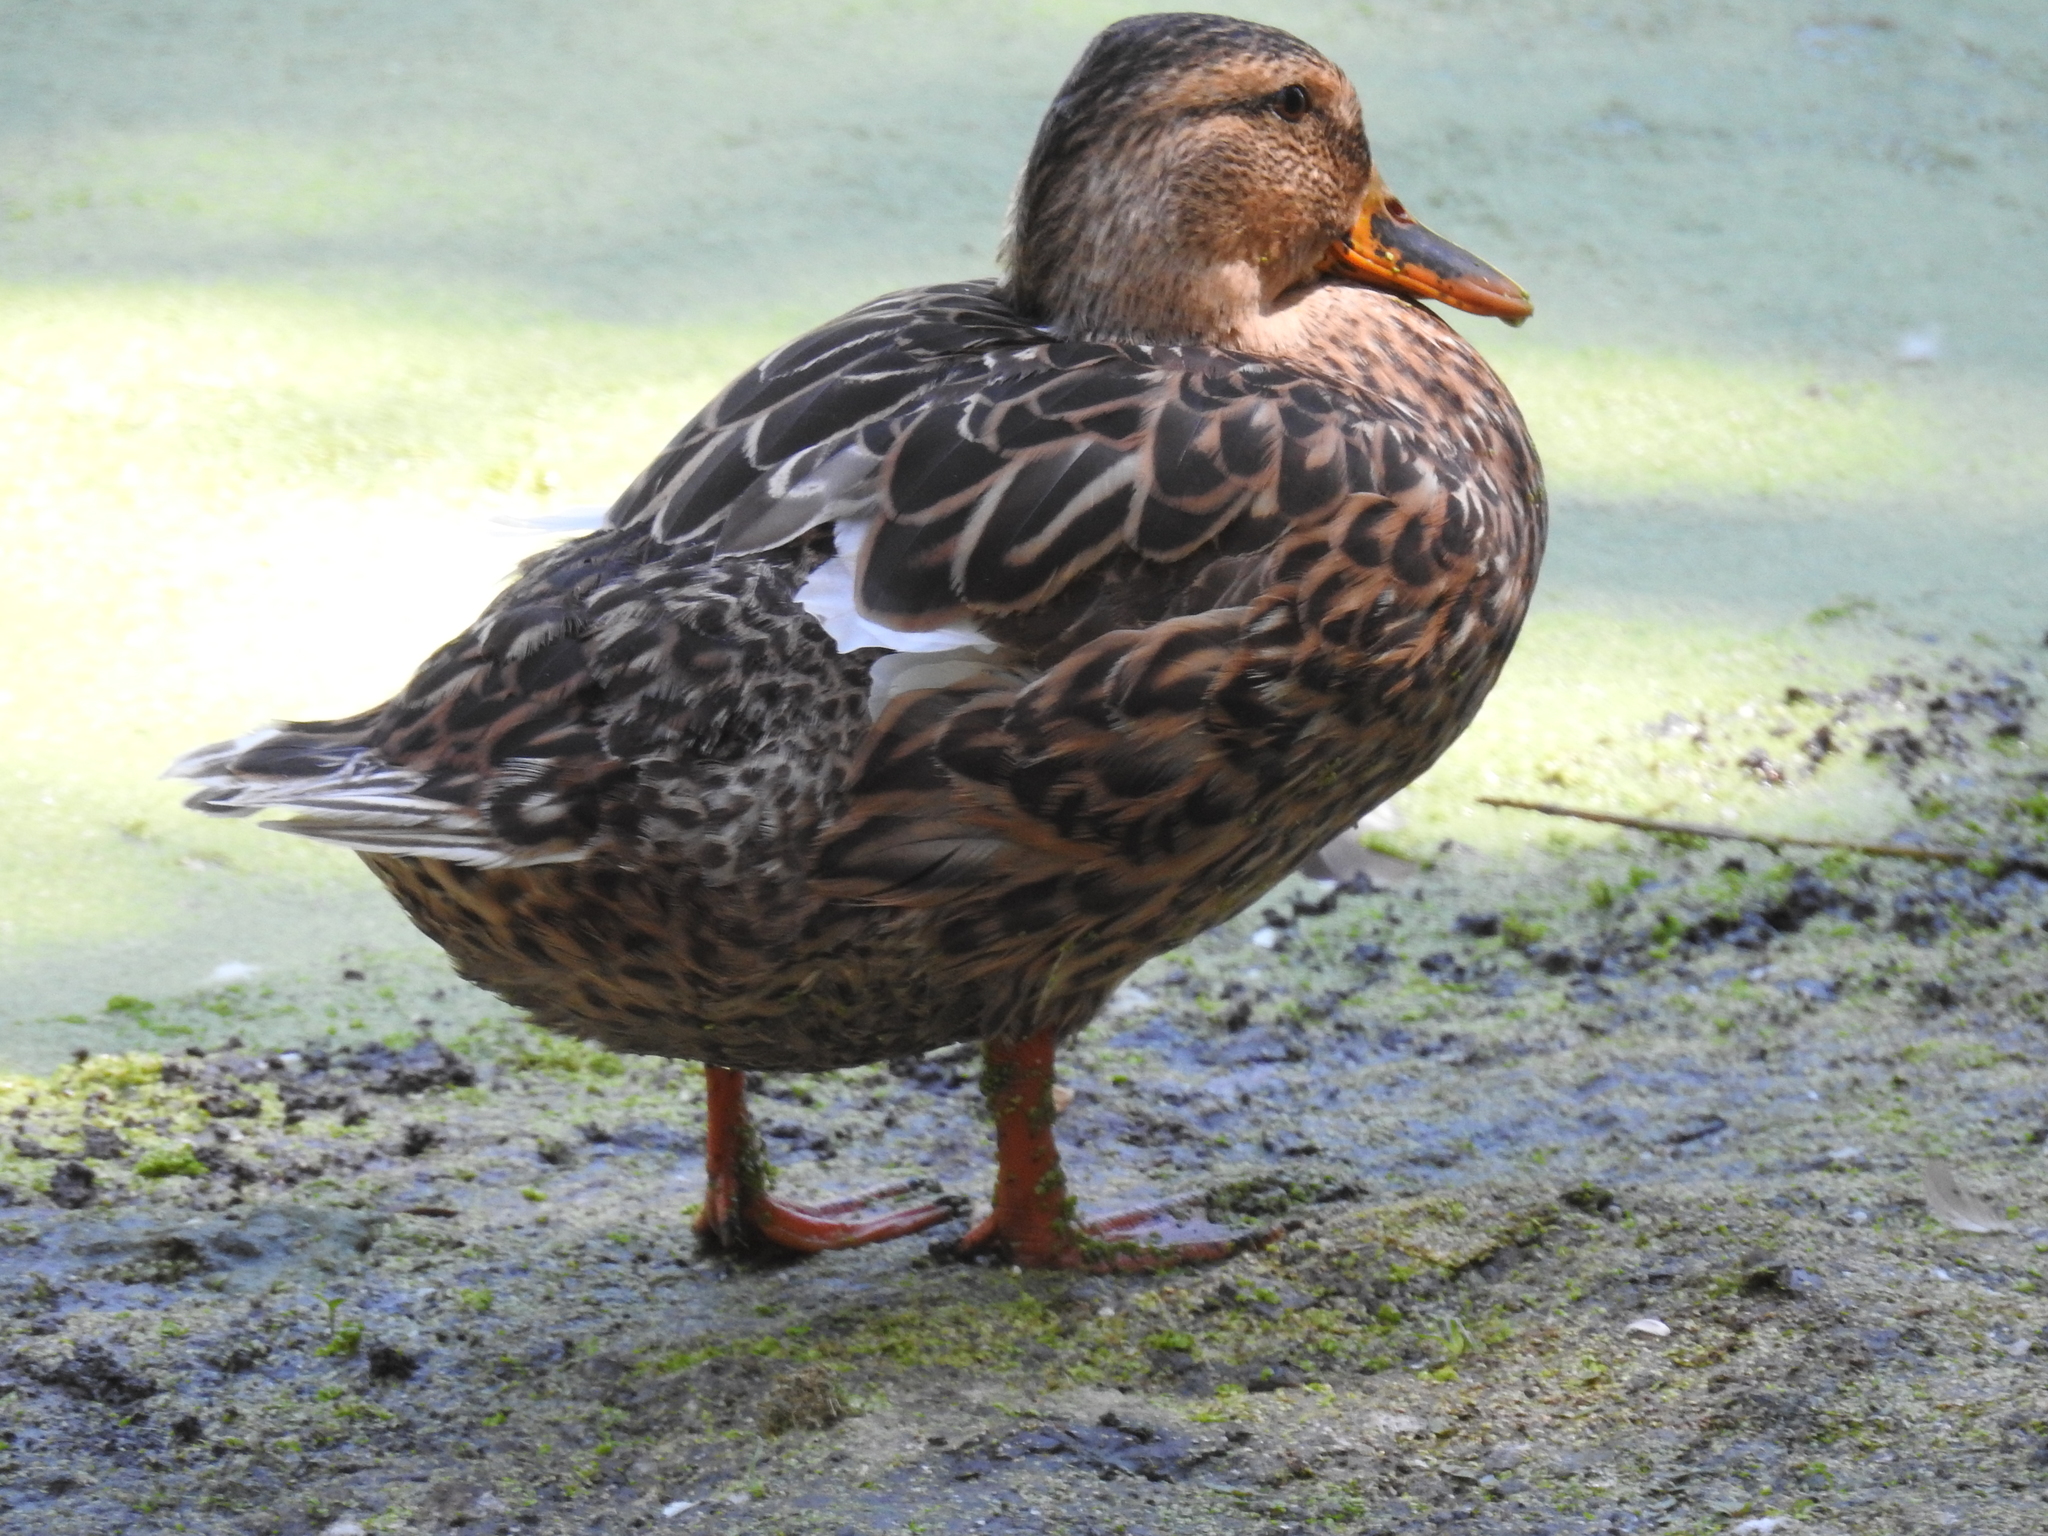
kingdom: Animalia
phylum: Chordata
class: Aves
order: Anseriformes
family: Anatidae
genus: Anas
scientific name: Anas platyrhynchos
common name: Mallard
